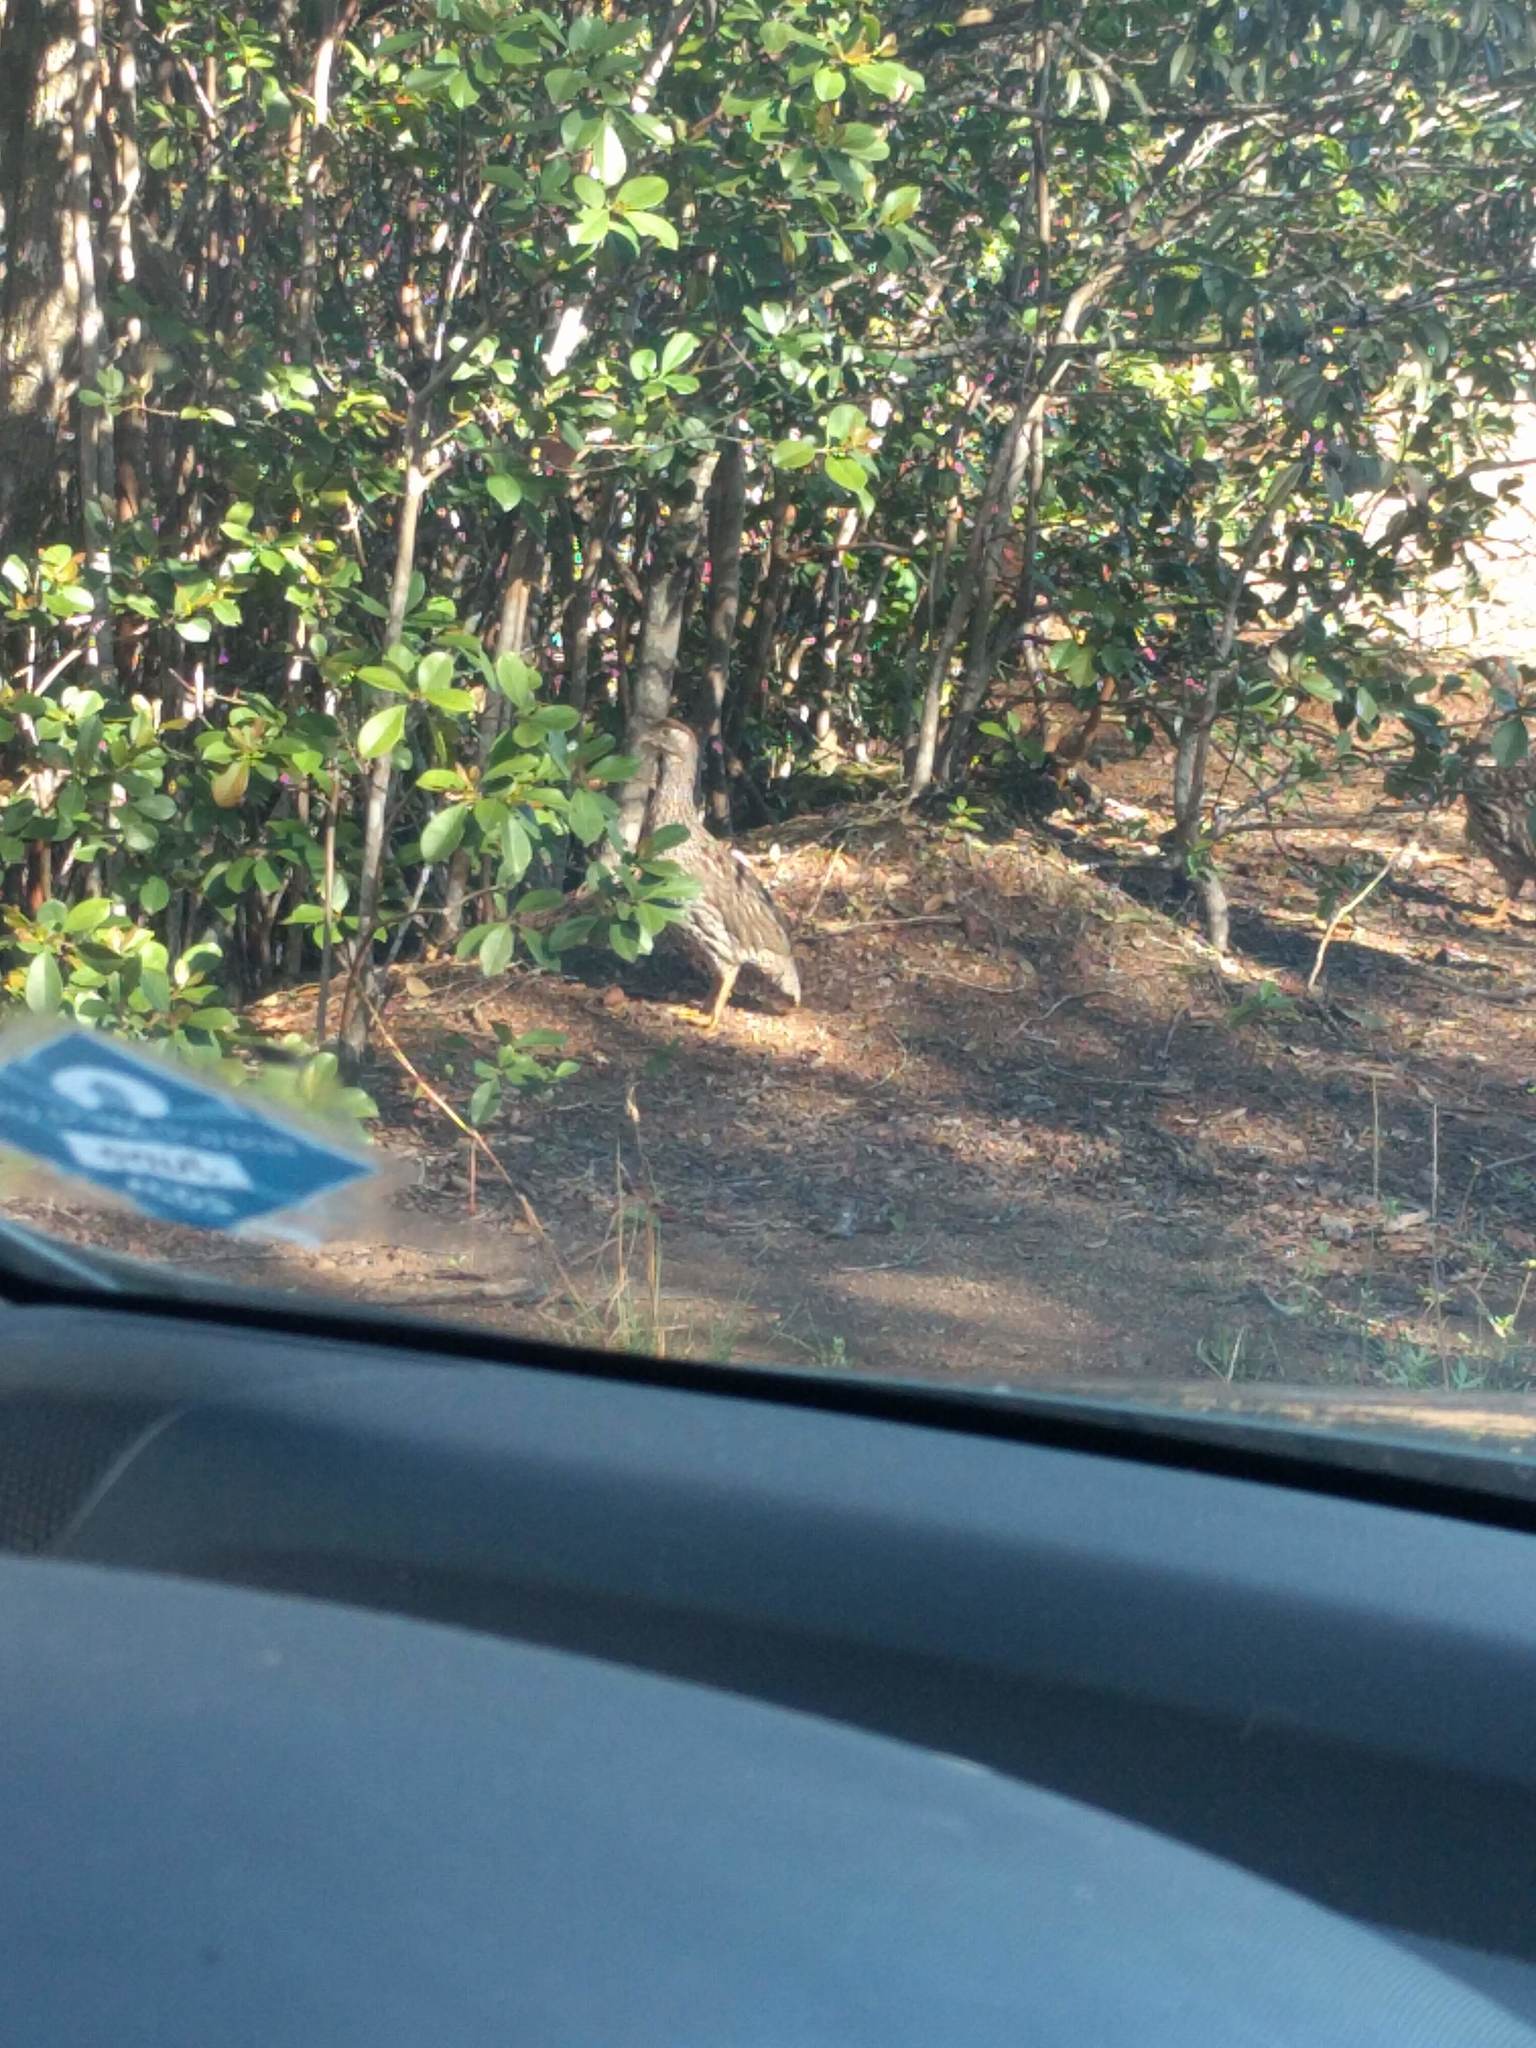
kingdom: Animalia
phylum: Chordata
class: Aves
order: Galliformes
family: Phasianidae
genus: Pternistis
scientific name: Pternistis erckelii
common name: Erckel's francolin
